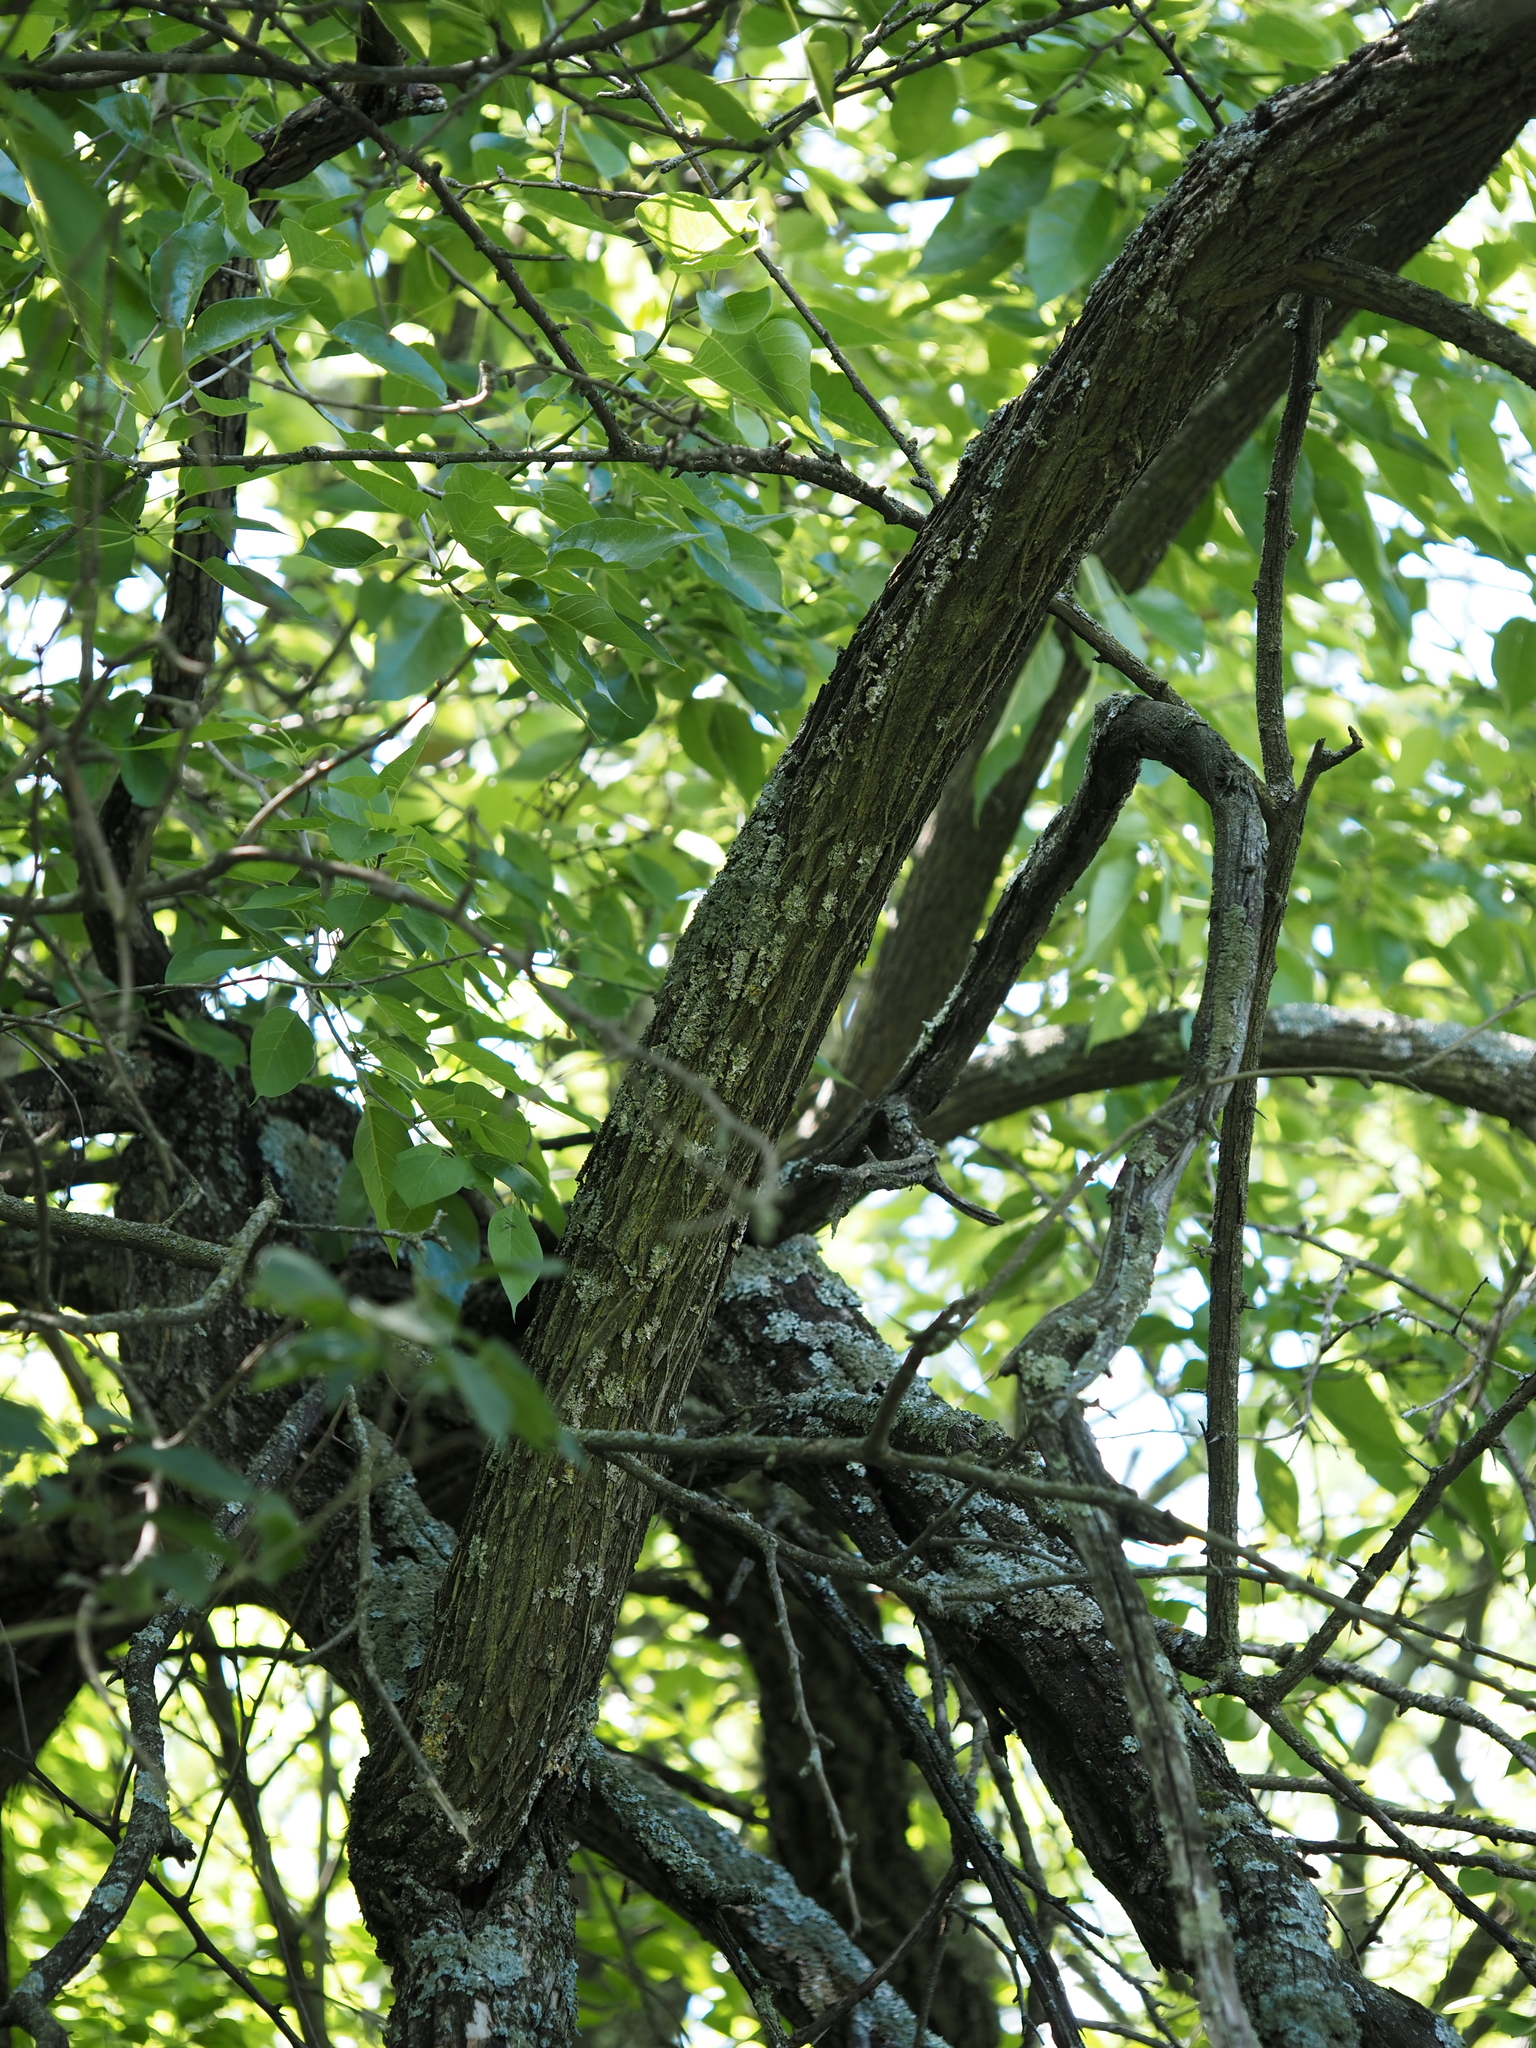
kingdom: Plantae
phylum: Tracheophyta
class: Magnoliopsida
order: Rosales
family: Moraceae
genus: Maclura
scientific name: Maclura pomifera
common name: Osage-orange
